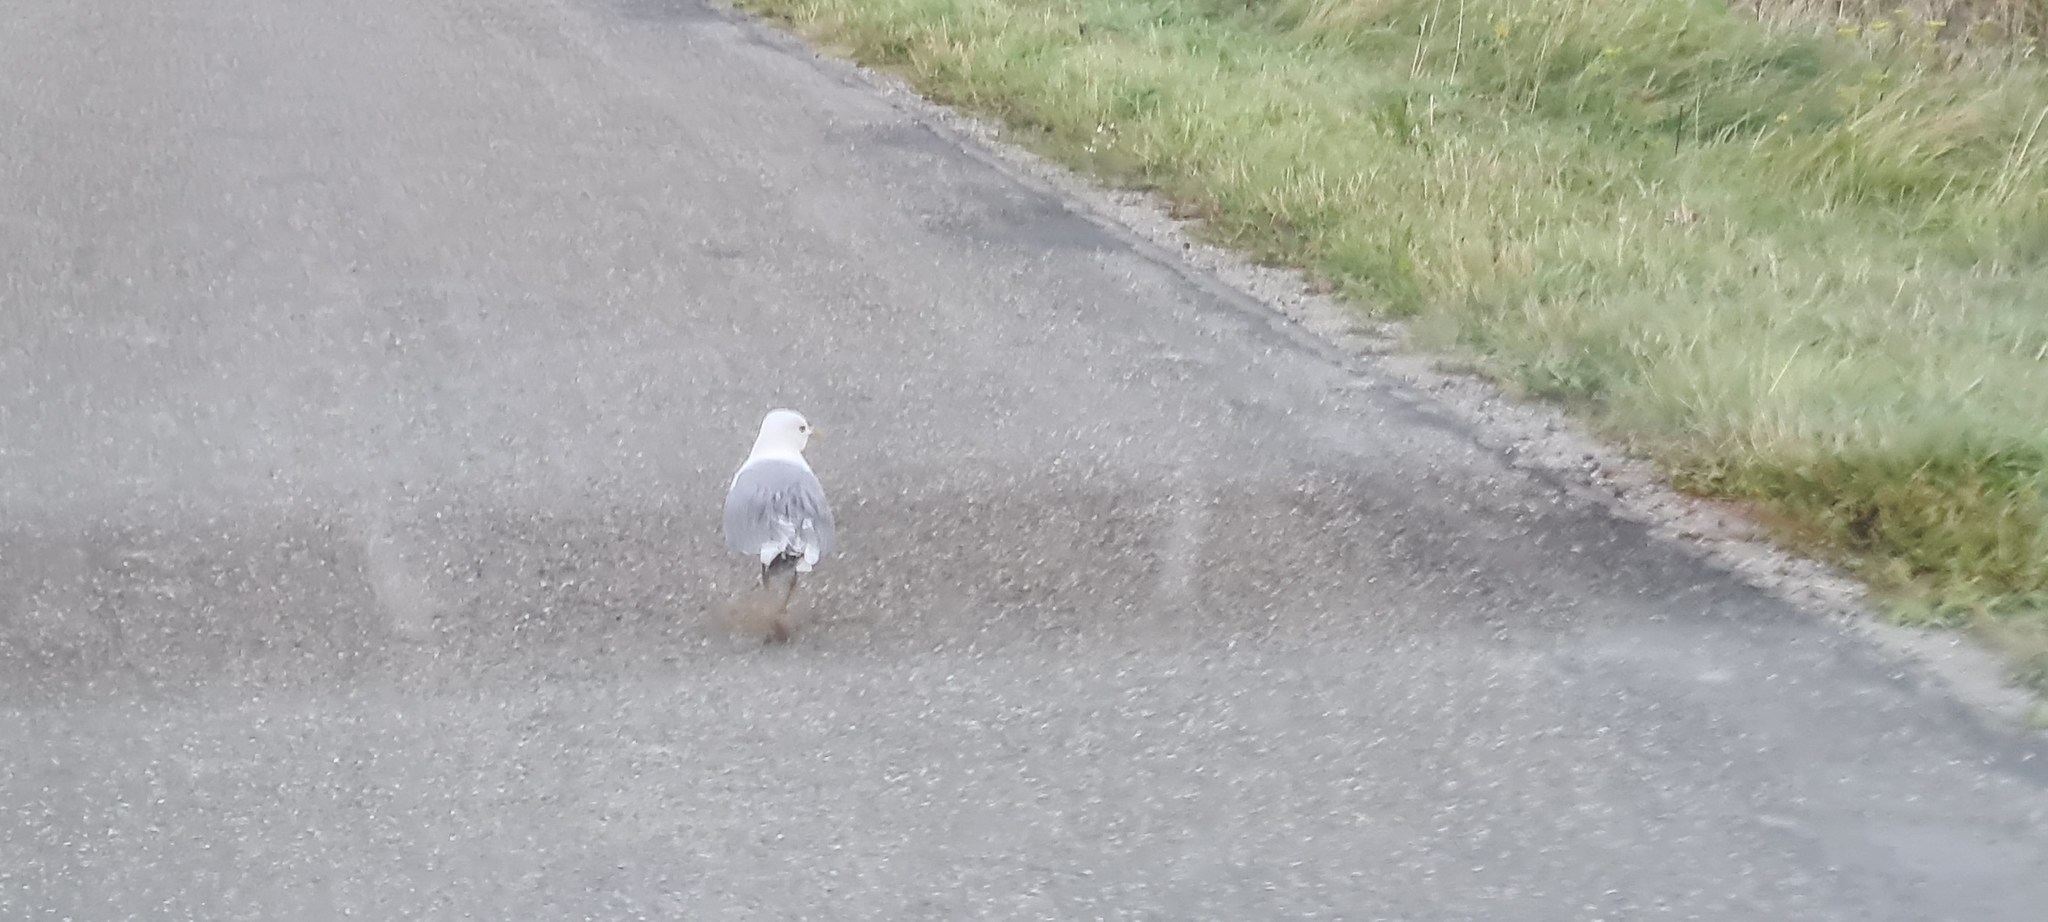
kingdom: Animalia
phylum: Chordata
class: Aves
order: Charadriiformes
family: Laridae
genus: Larus
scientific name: Larus canus
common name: Mew gull
